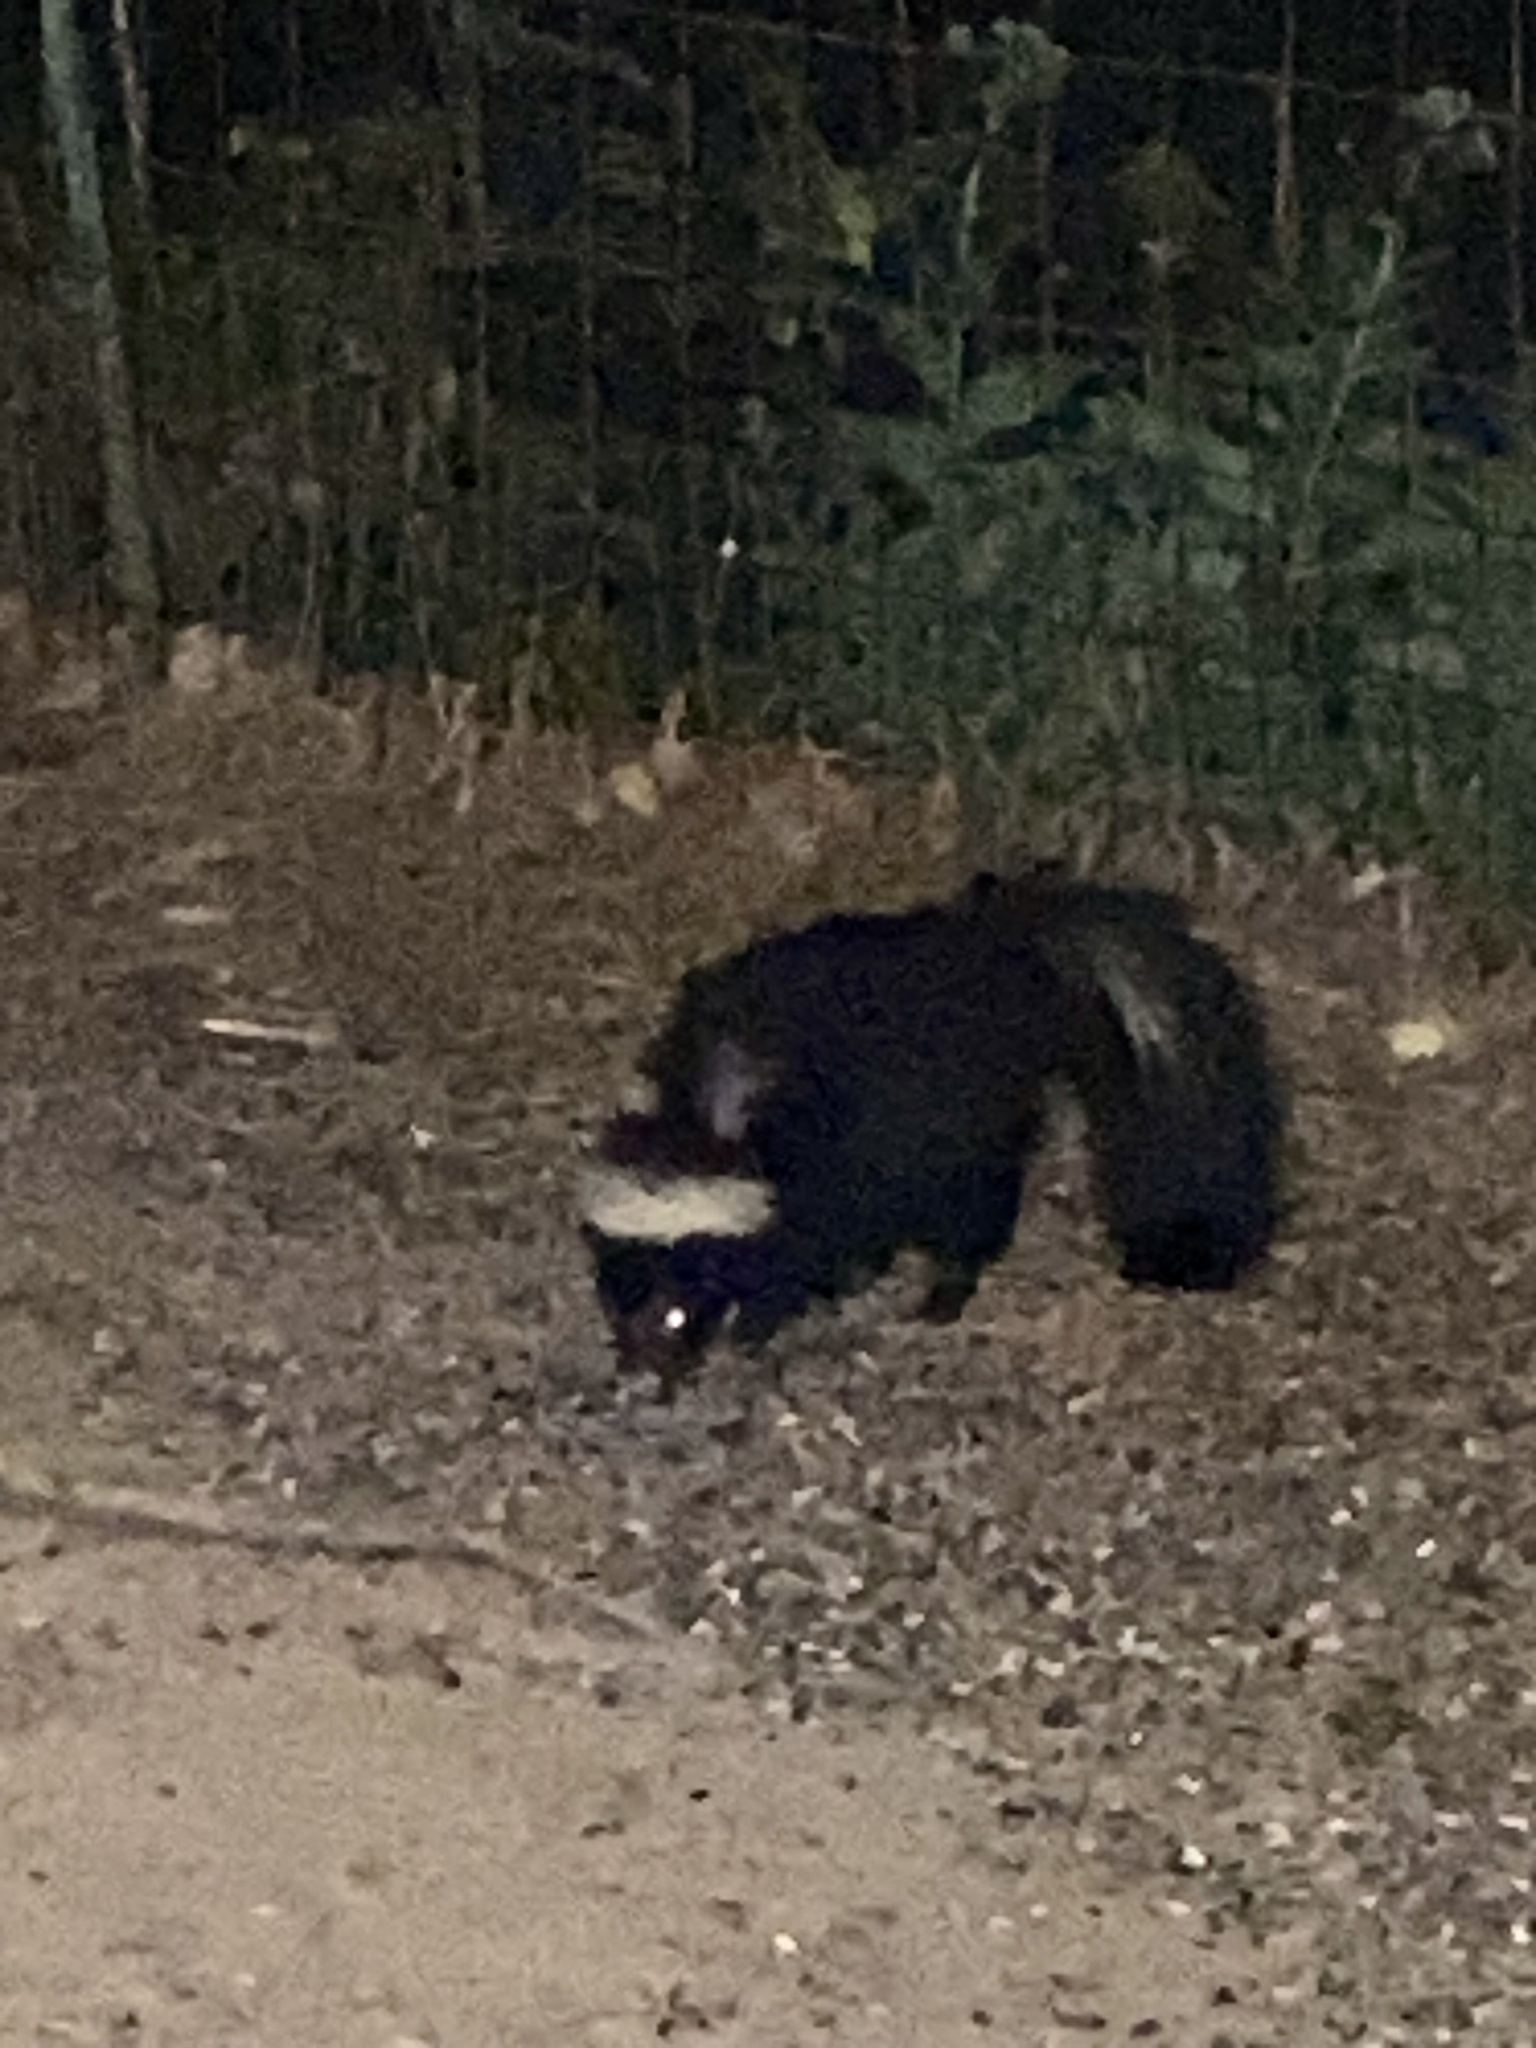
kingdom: Animalia
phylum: Chordata
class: Mammalia
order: Carnivora
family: Mephitidae
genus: Mephitis
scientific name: Mephitis mephitis
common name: Striped skunk
